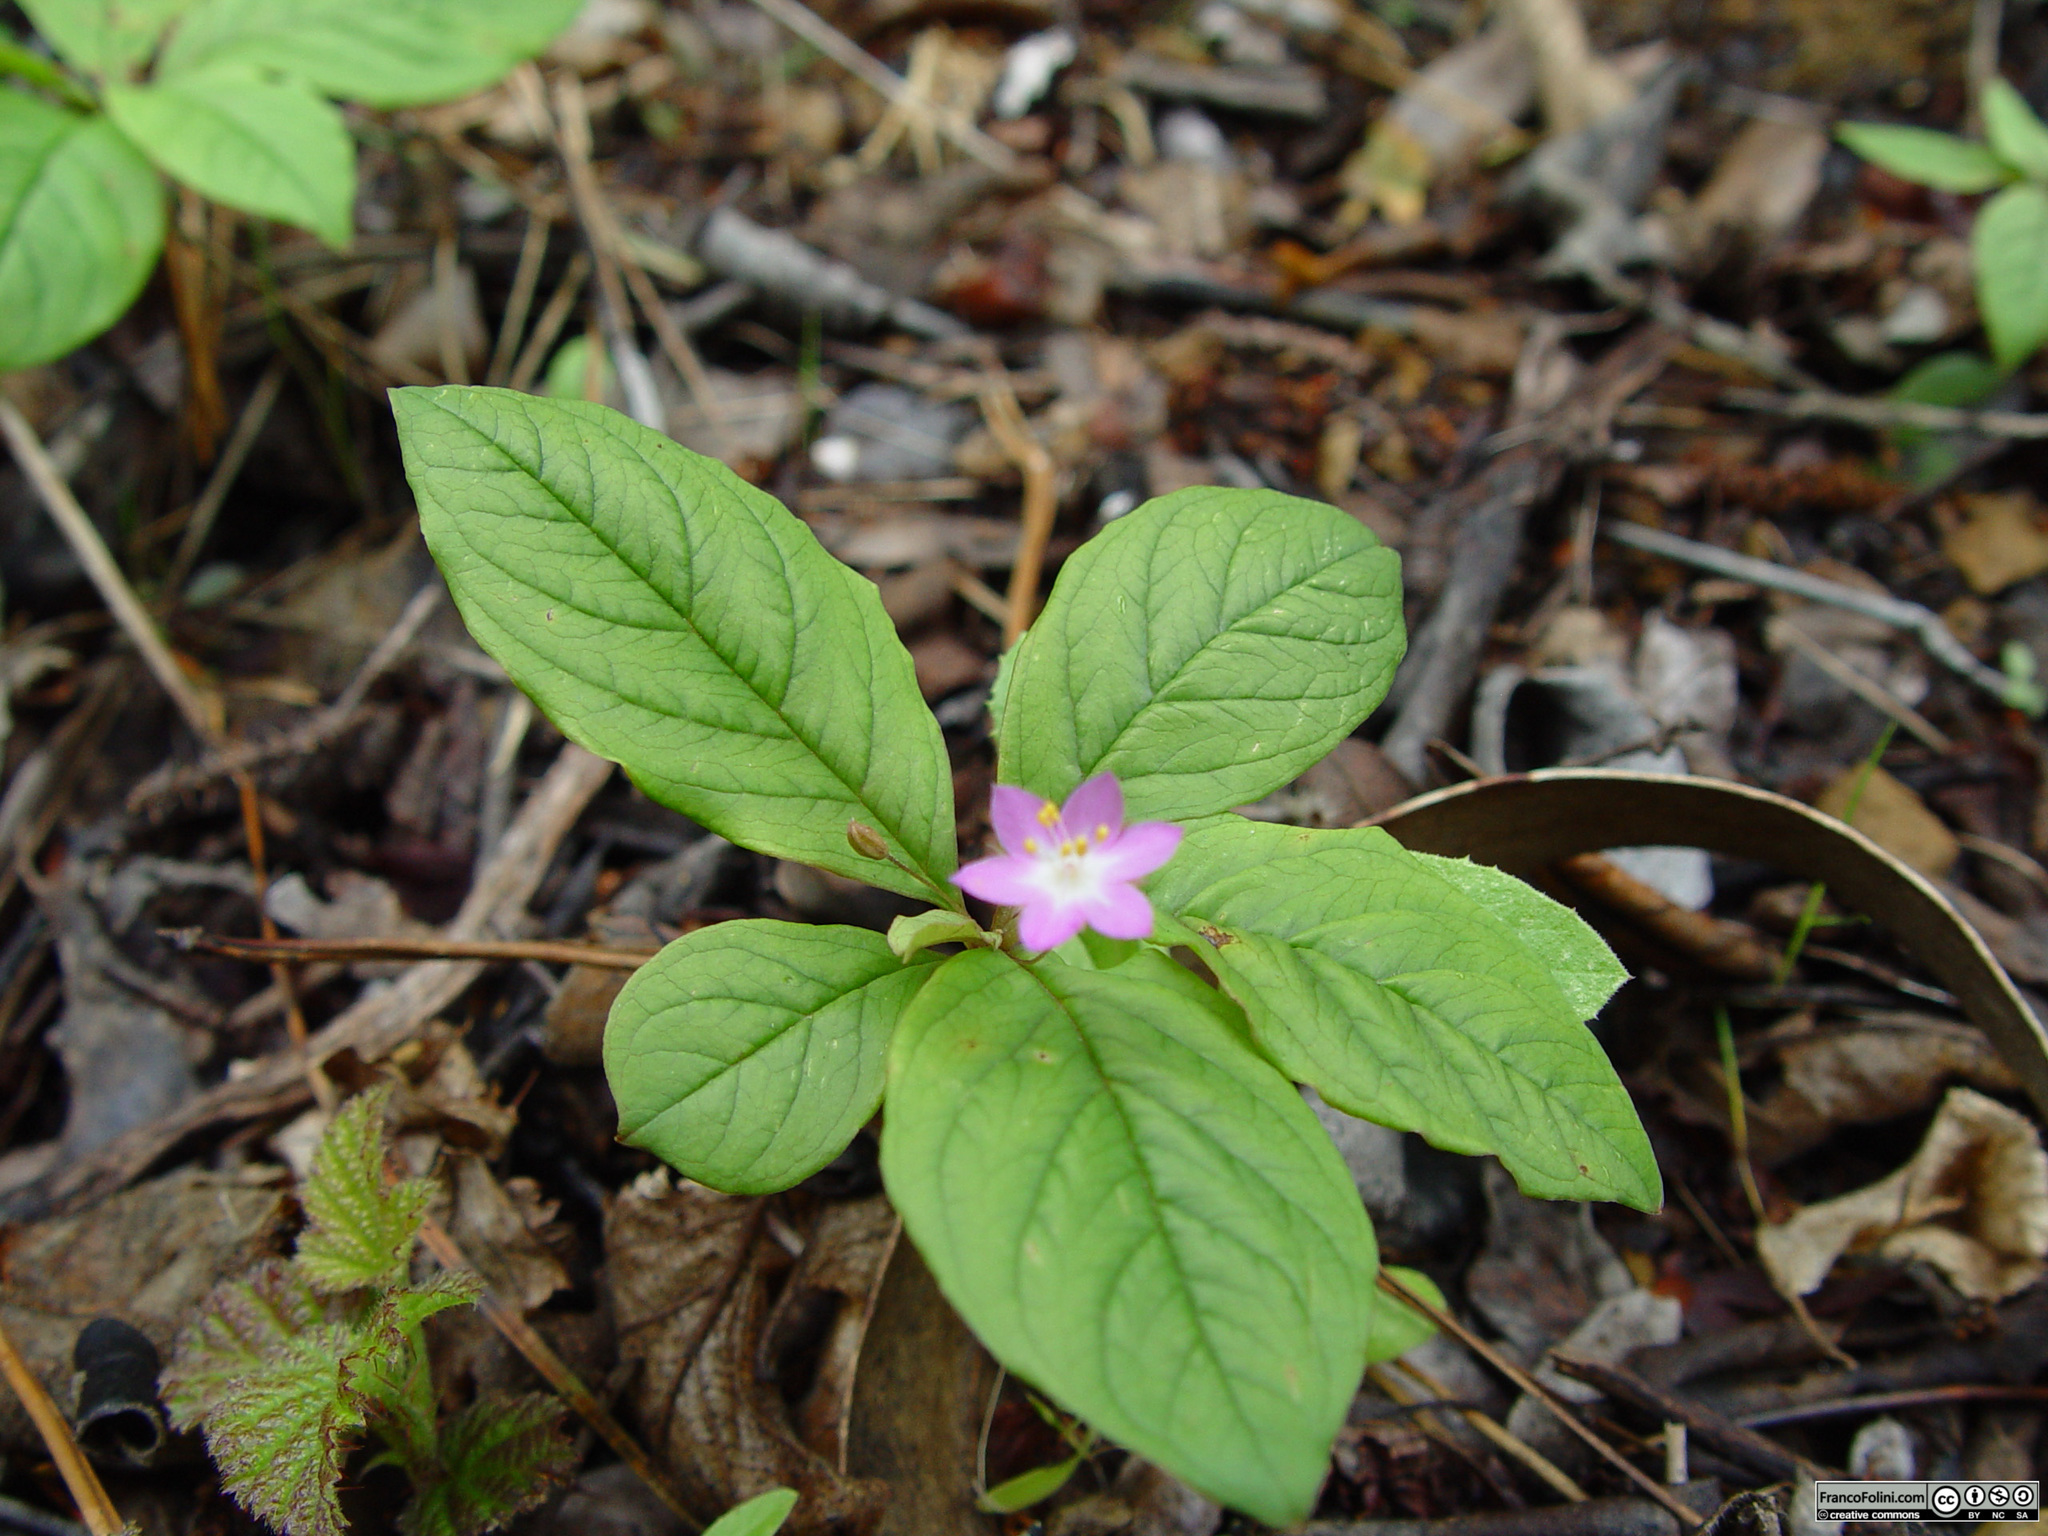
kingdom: Plantae
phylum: Tracheophyta
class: Magnoliopsida
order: Ericales
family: Primulaceae
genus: Lysimachia
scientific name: Lysimachia latifolia
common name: Pacific starflower
